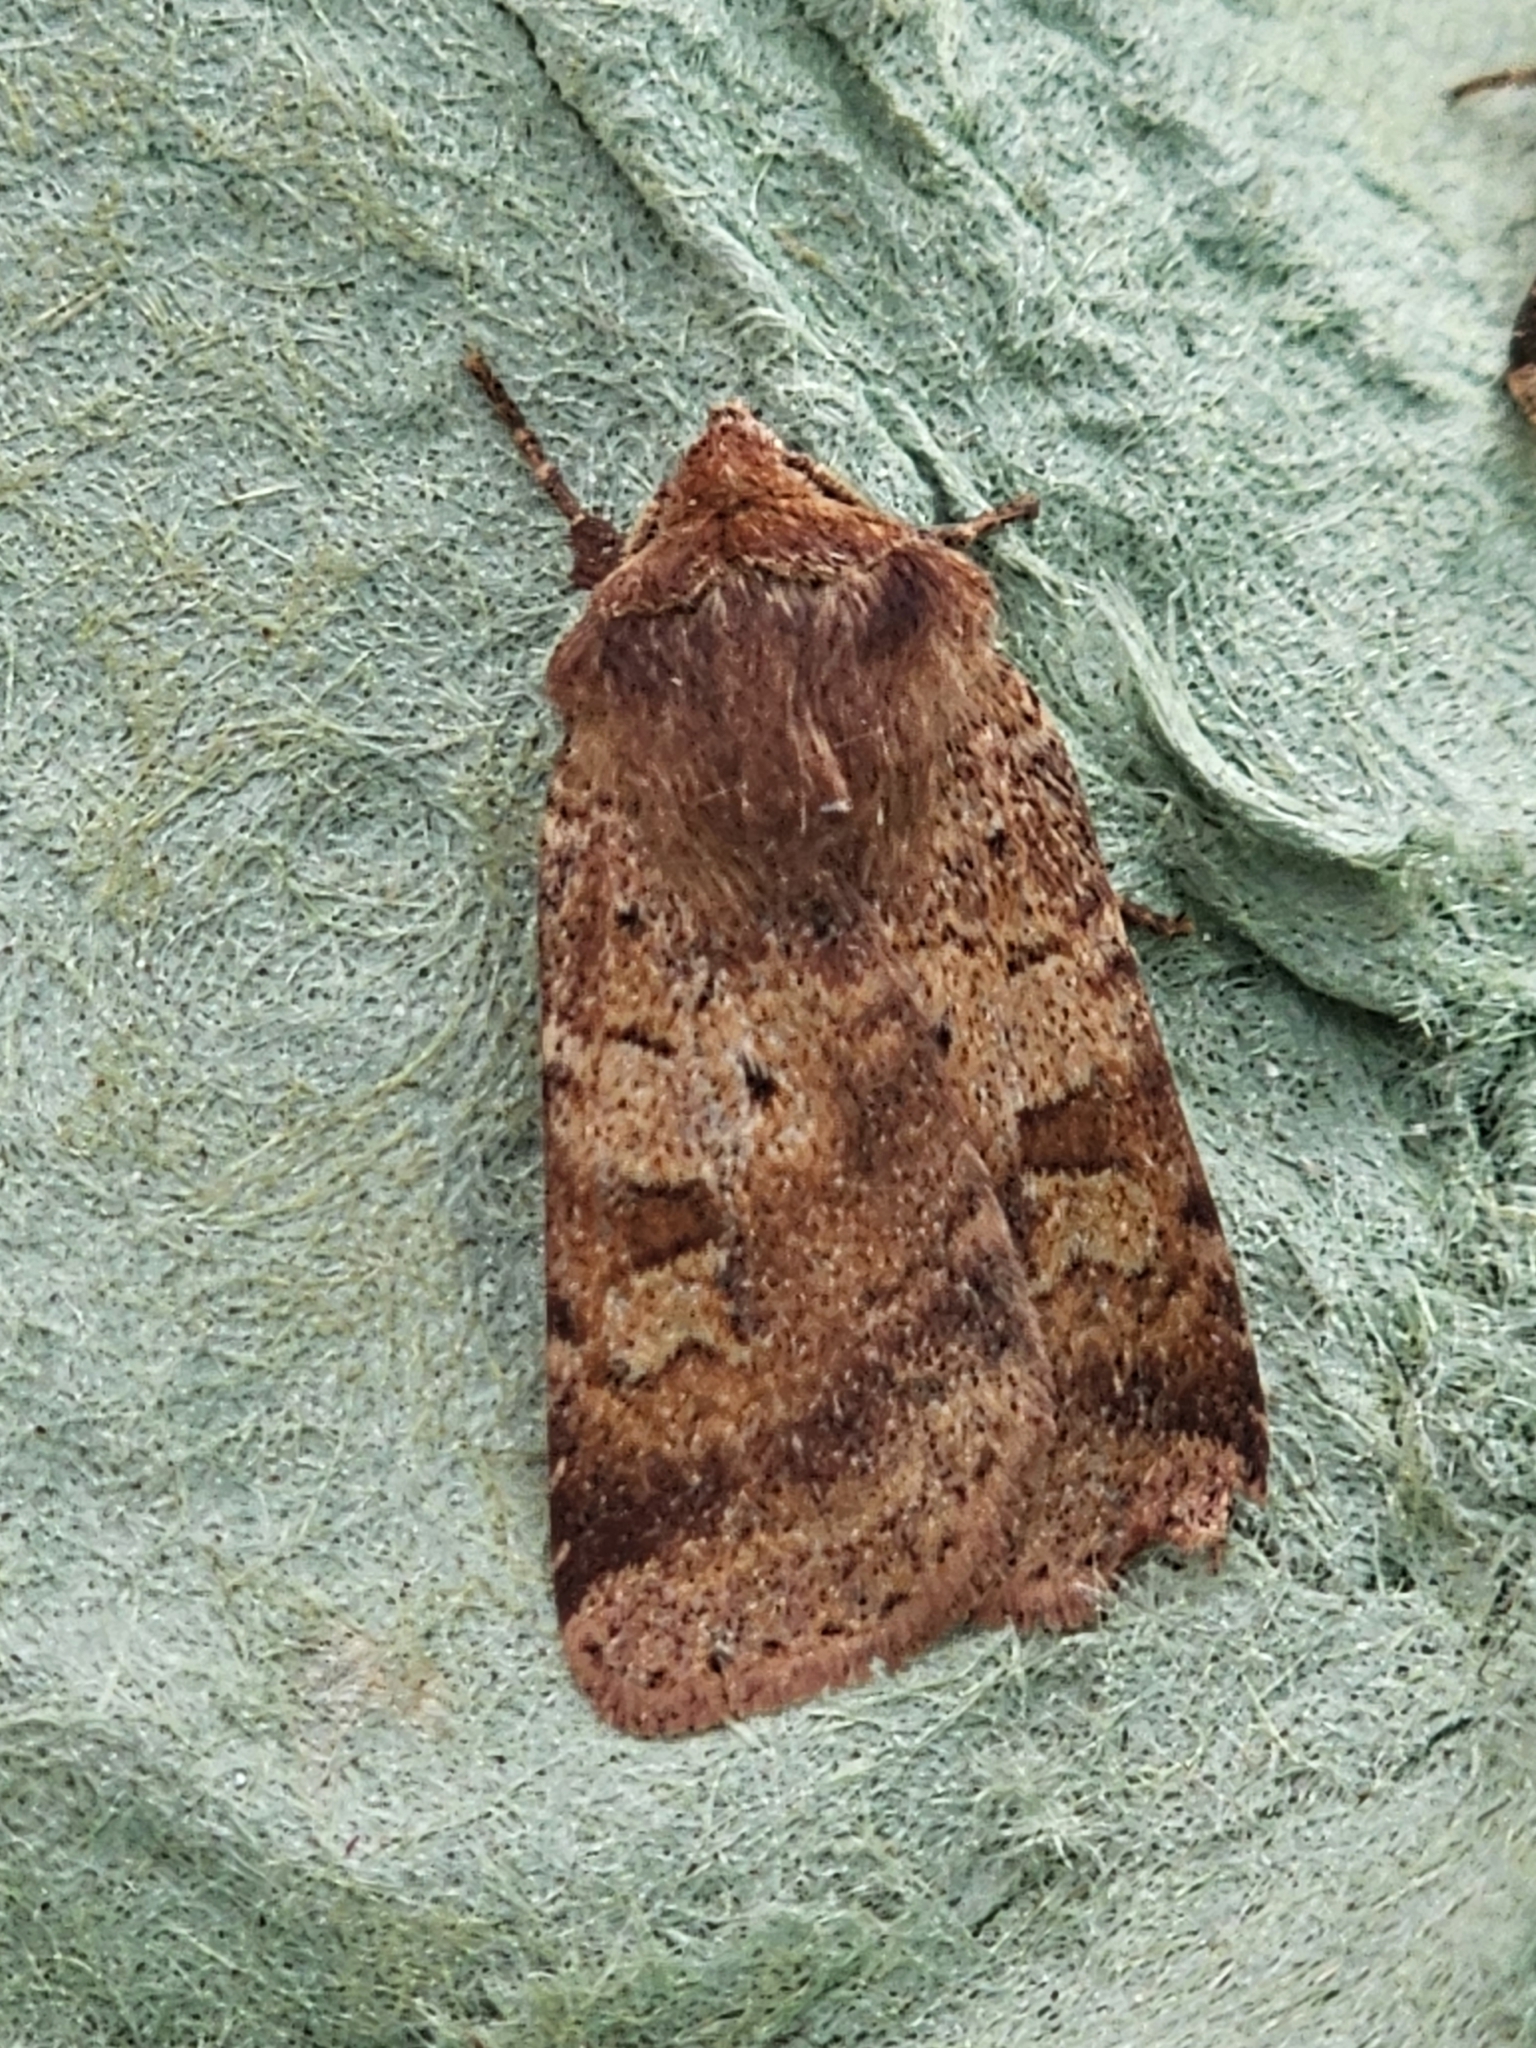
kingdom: Animalia
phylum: Arthropoda
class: Insecta
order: Lepidoptera
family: Noctuidae
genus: Diarsia
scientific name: Diarsia mendica
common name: Ingrailed clay
